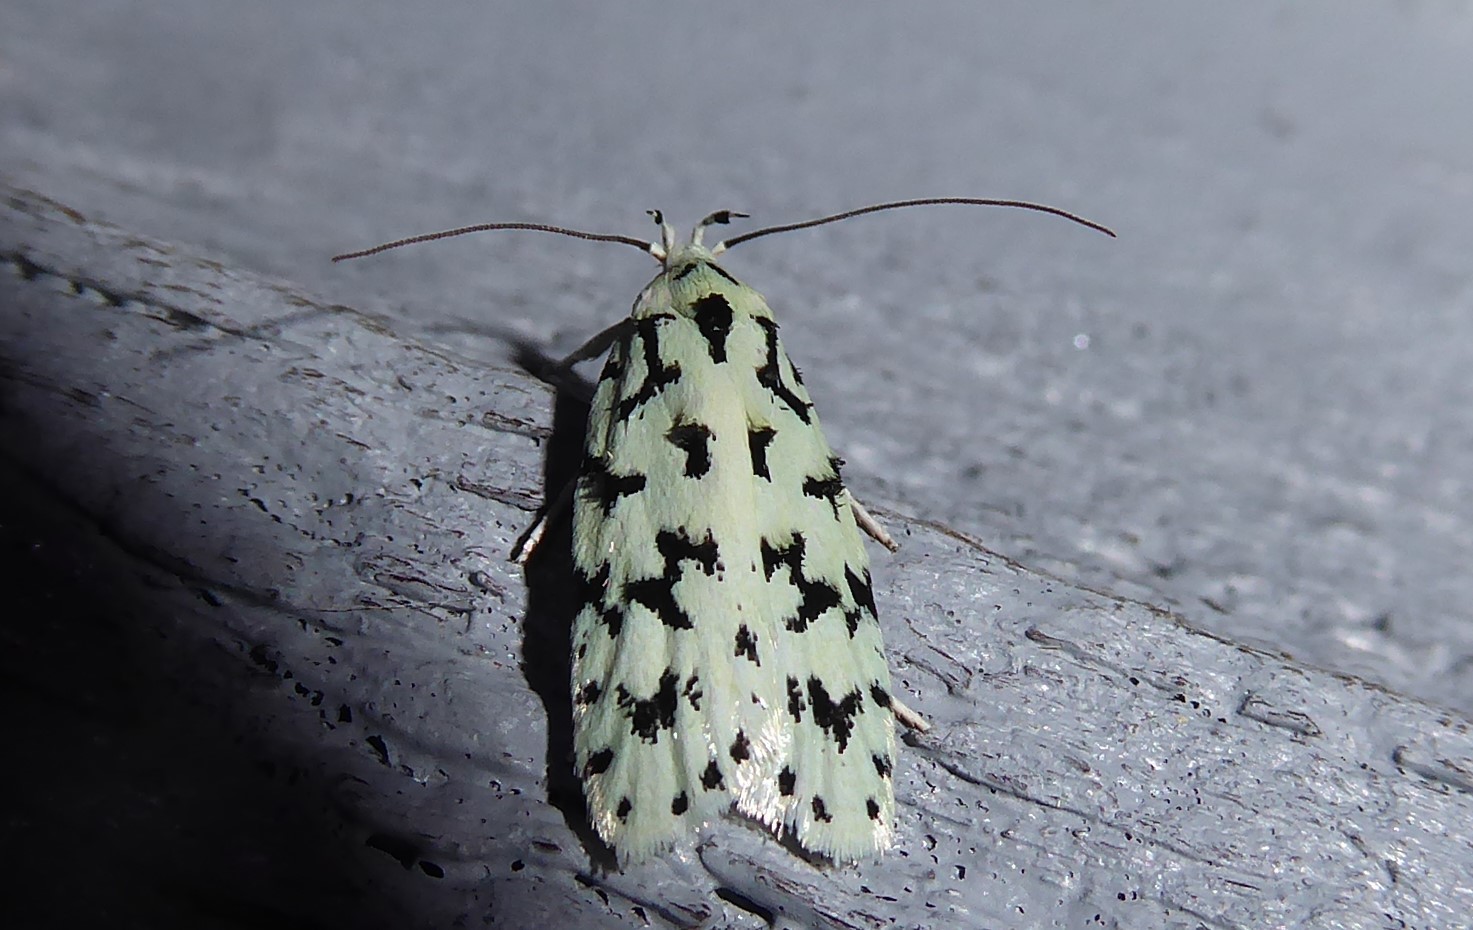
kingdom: Animalia
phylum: Arthropoda
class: Insecta
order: Lepidoptera
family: Oecophoridae
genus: Izatha
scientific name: Izatha huttoni
